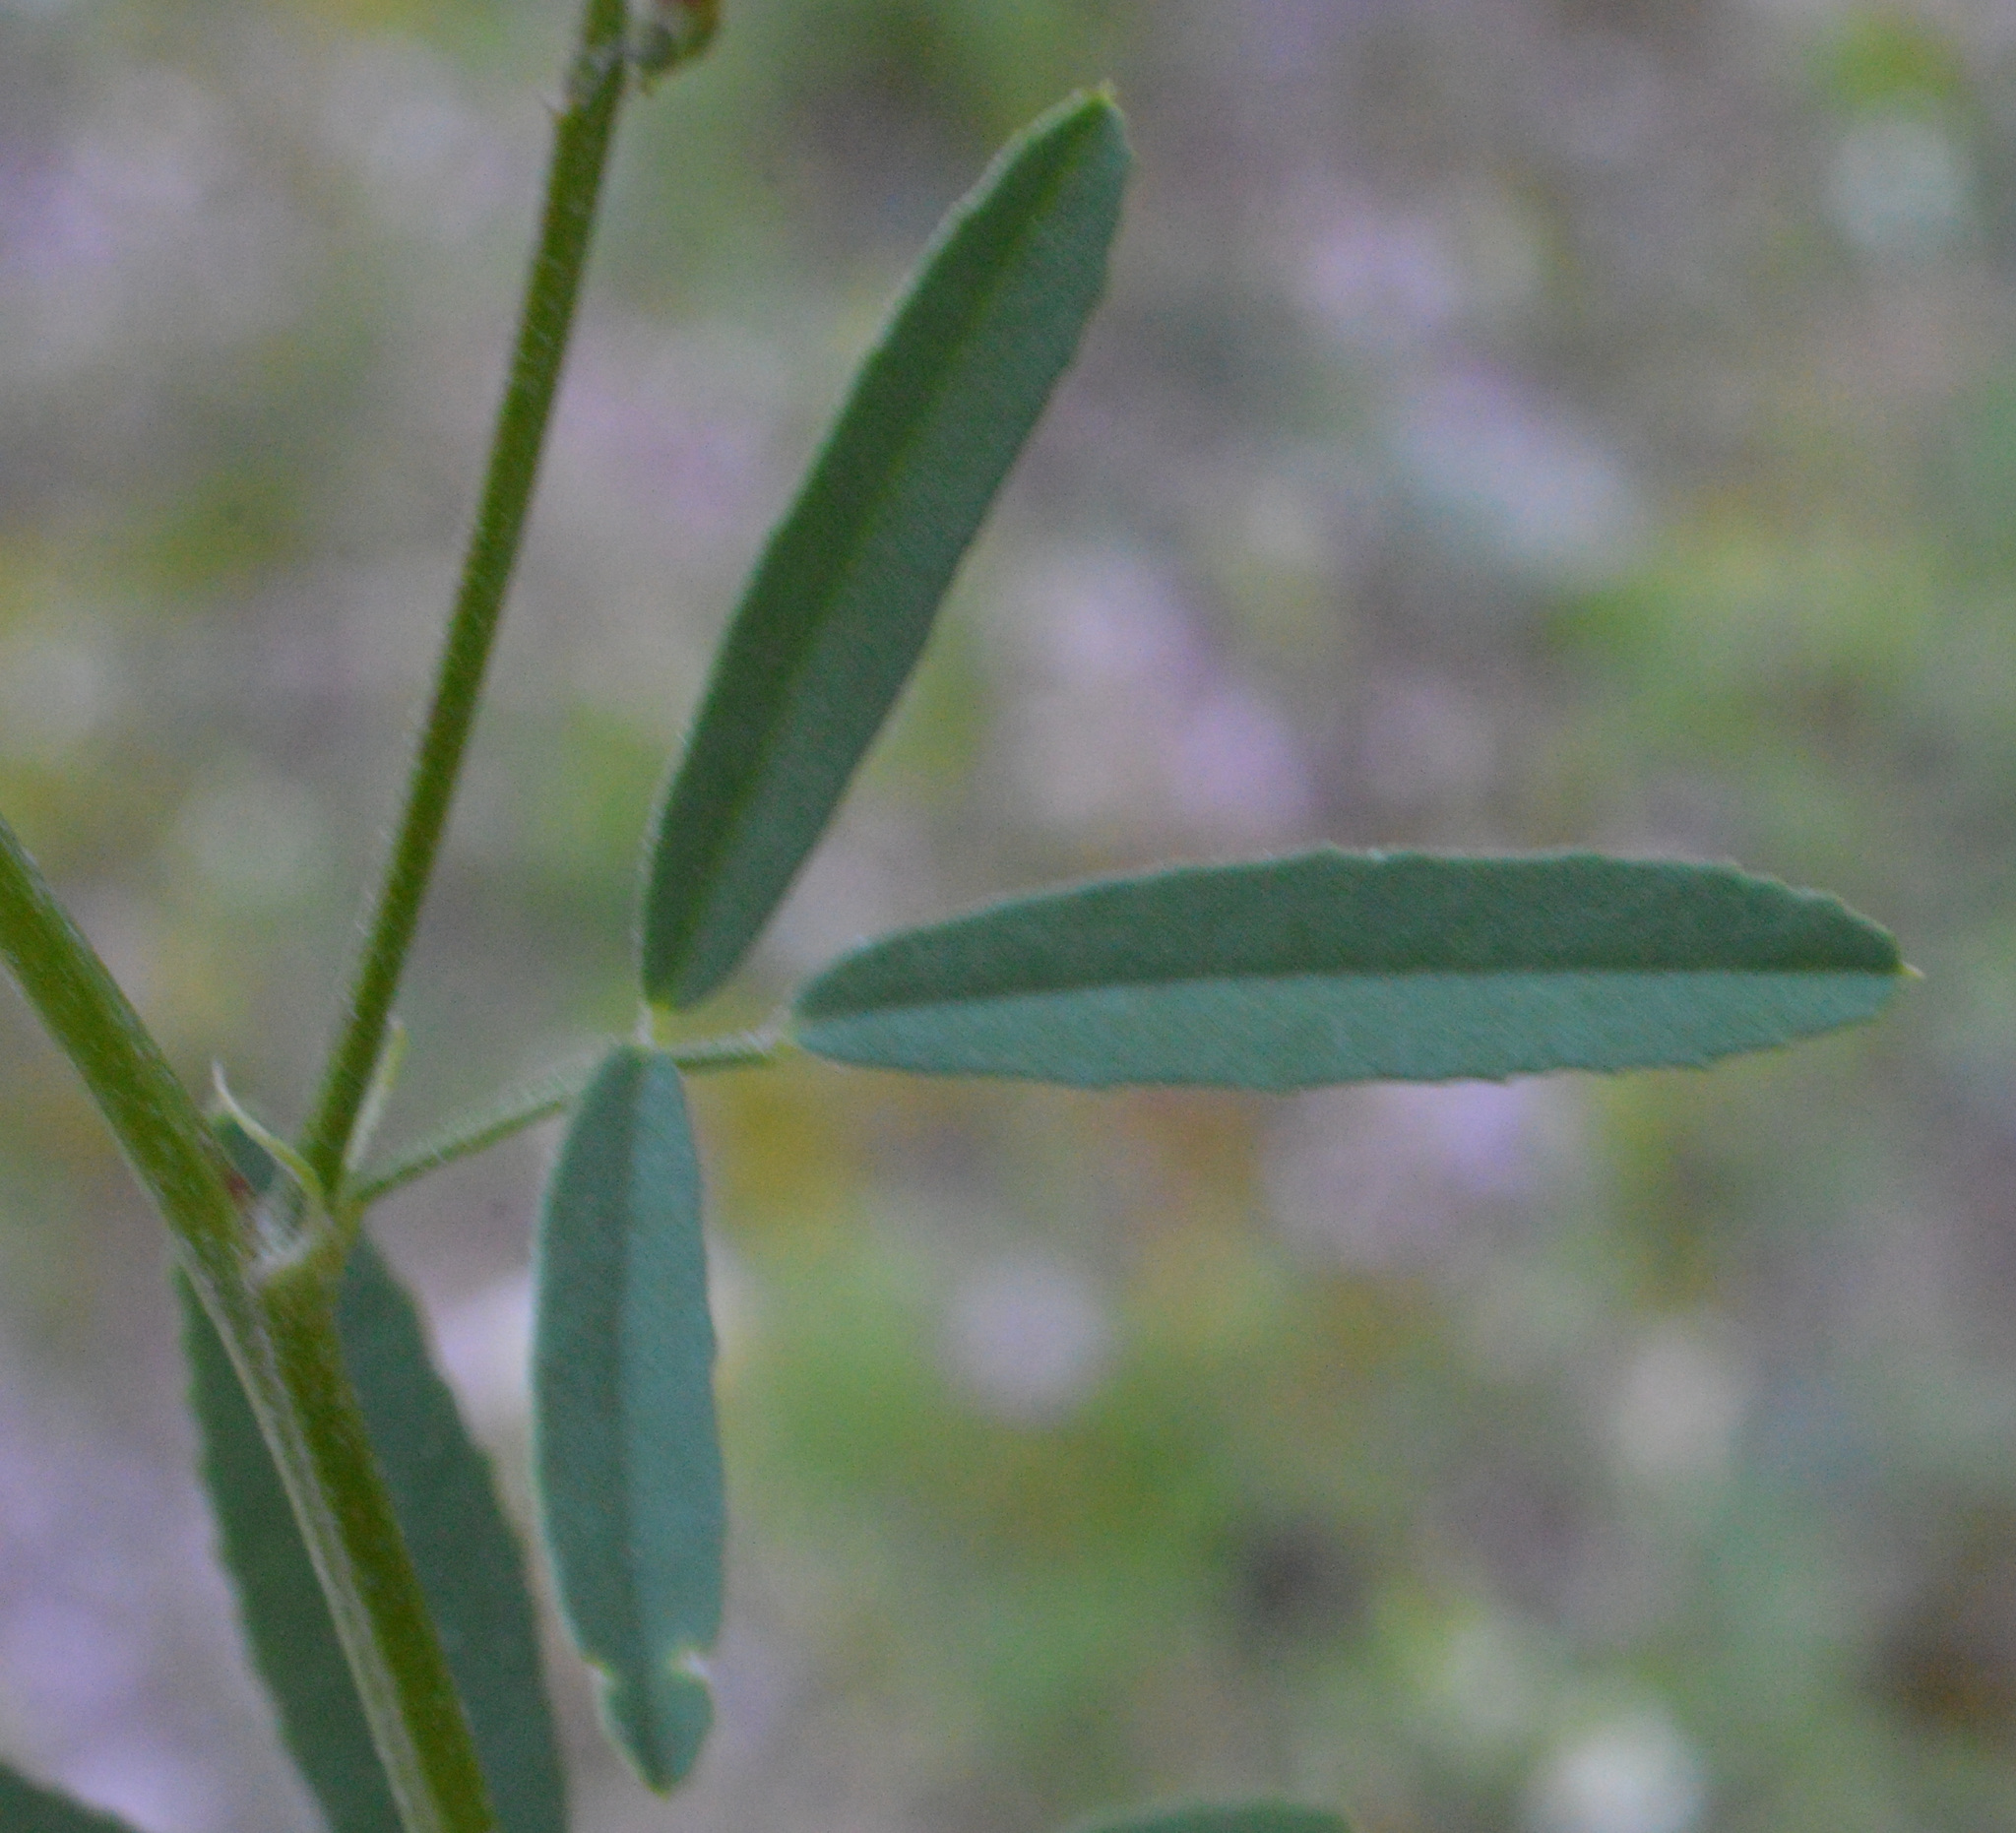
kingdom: Plantae
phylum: Tracheophyta
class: Magnoliopsida
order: Fabales
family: Fabaceae
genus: Melilotus
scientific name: Melilotus albus
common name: White melilot
